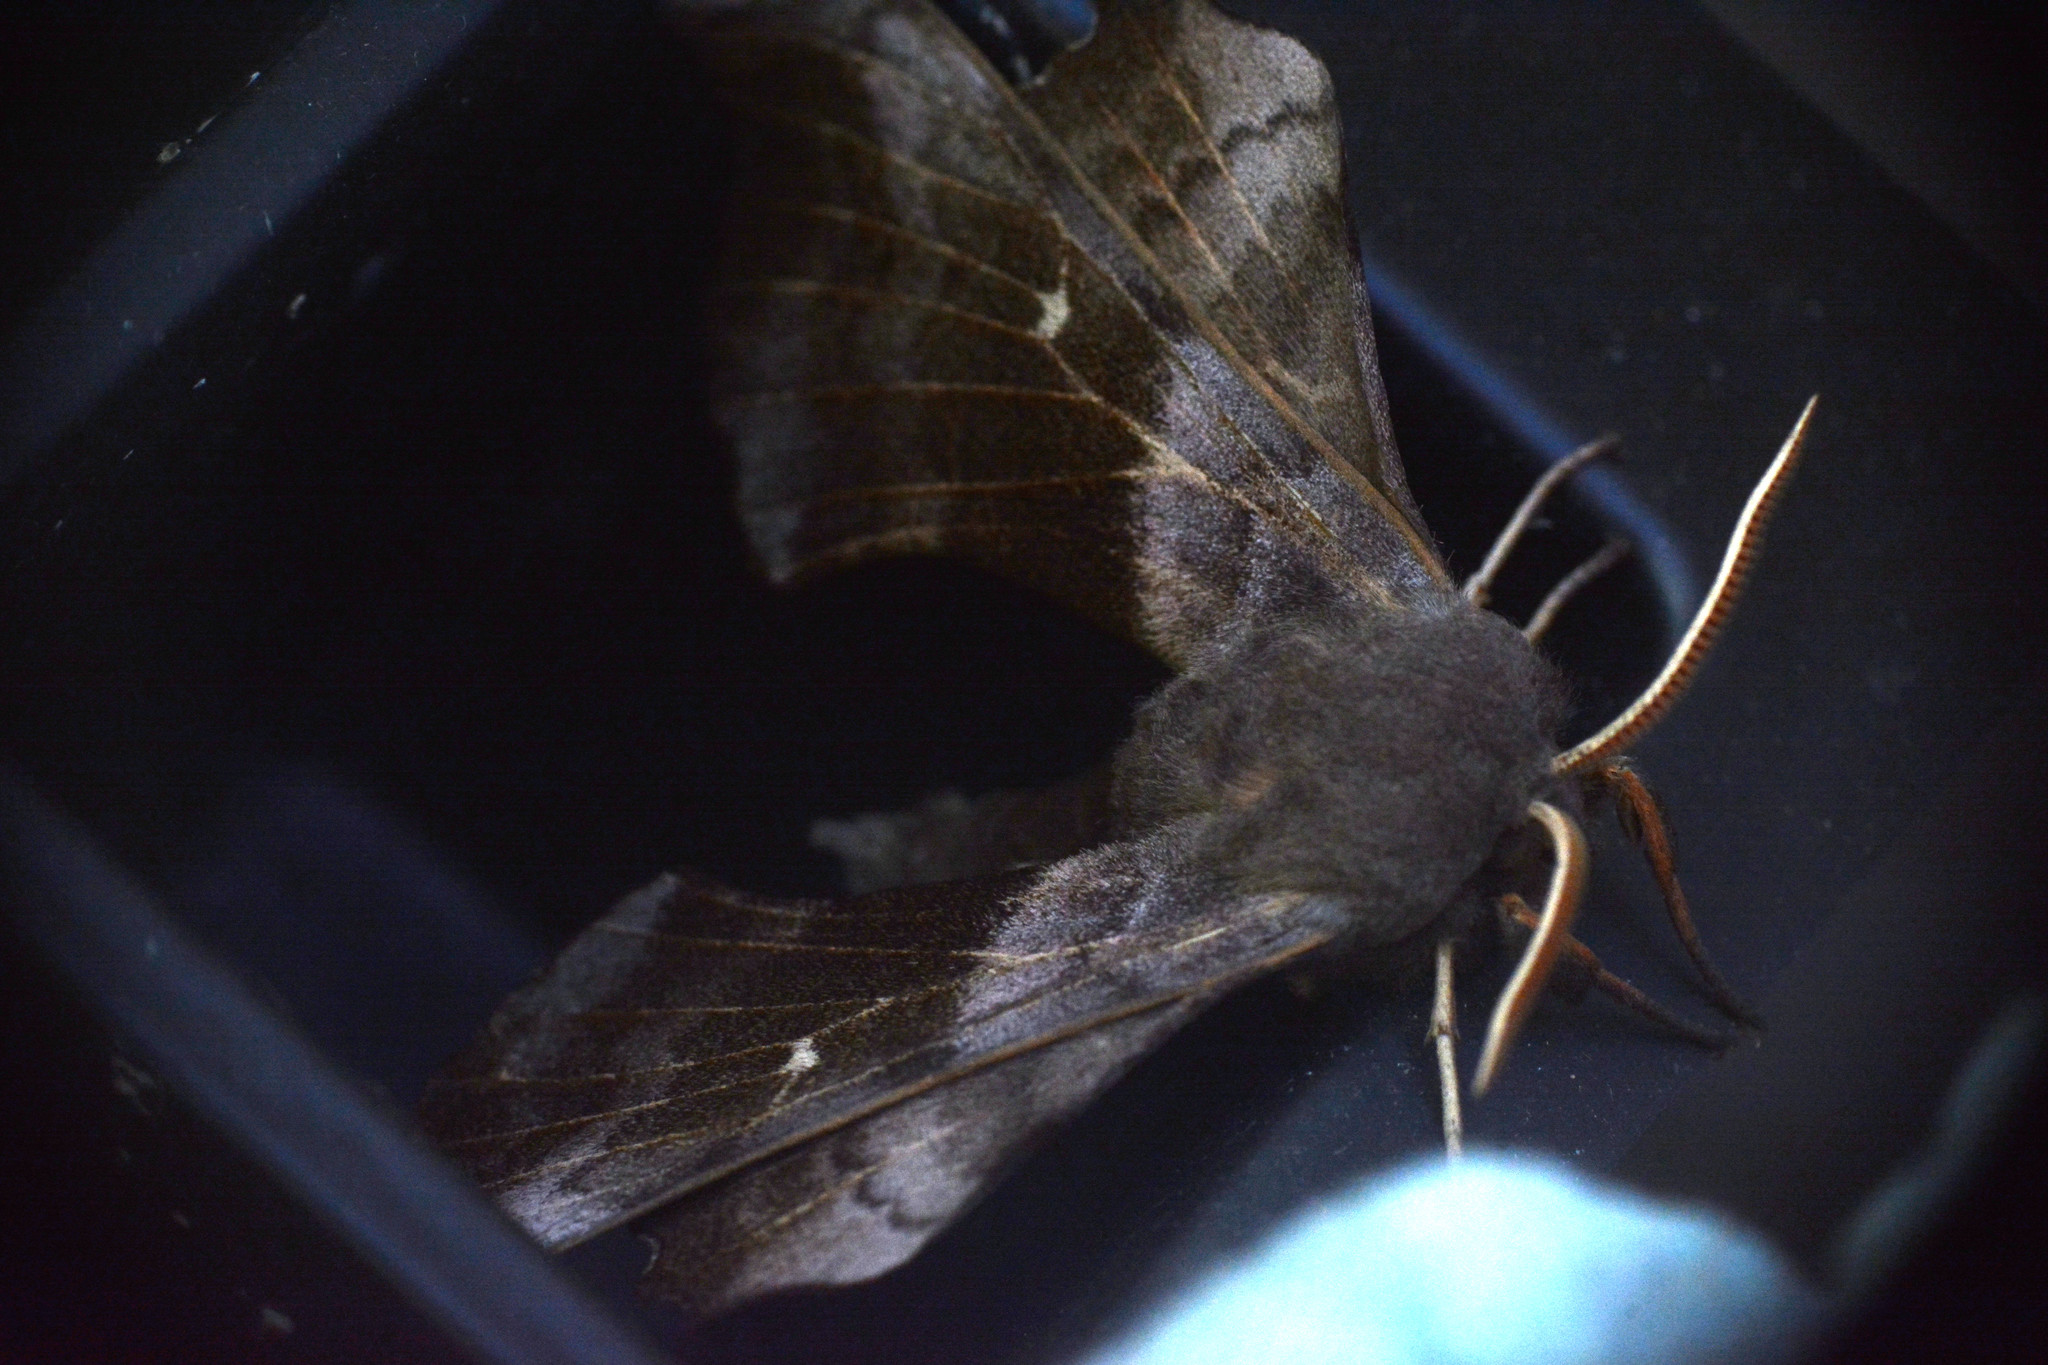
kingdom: Animalia
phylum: Arthropoda
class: Insecta
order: Lepidoptera
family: Sphingidae
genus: Laothoe
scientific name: Laothoe populi
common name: Poplar hawk-moth
